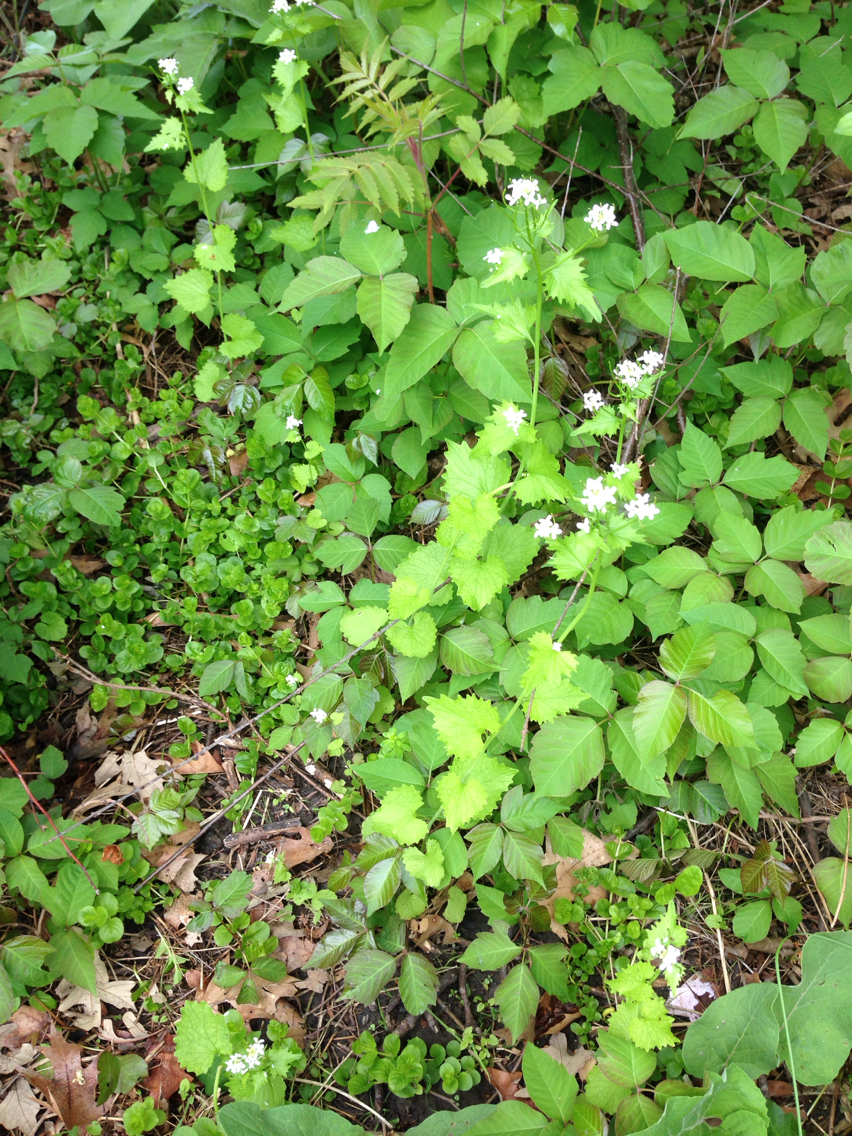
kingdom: Plantae
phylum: Tracheophyta
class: Magnoliopsida
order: Brassicales
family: Brassicaceae
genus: Alliaria
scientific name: Alliaria petiolata
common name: Garlic mustard
